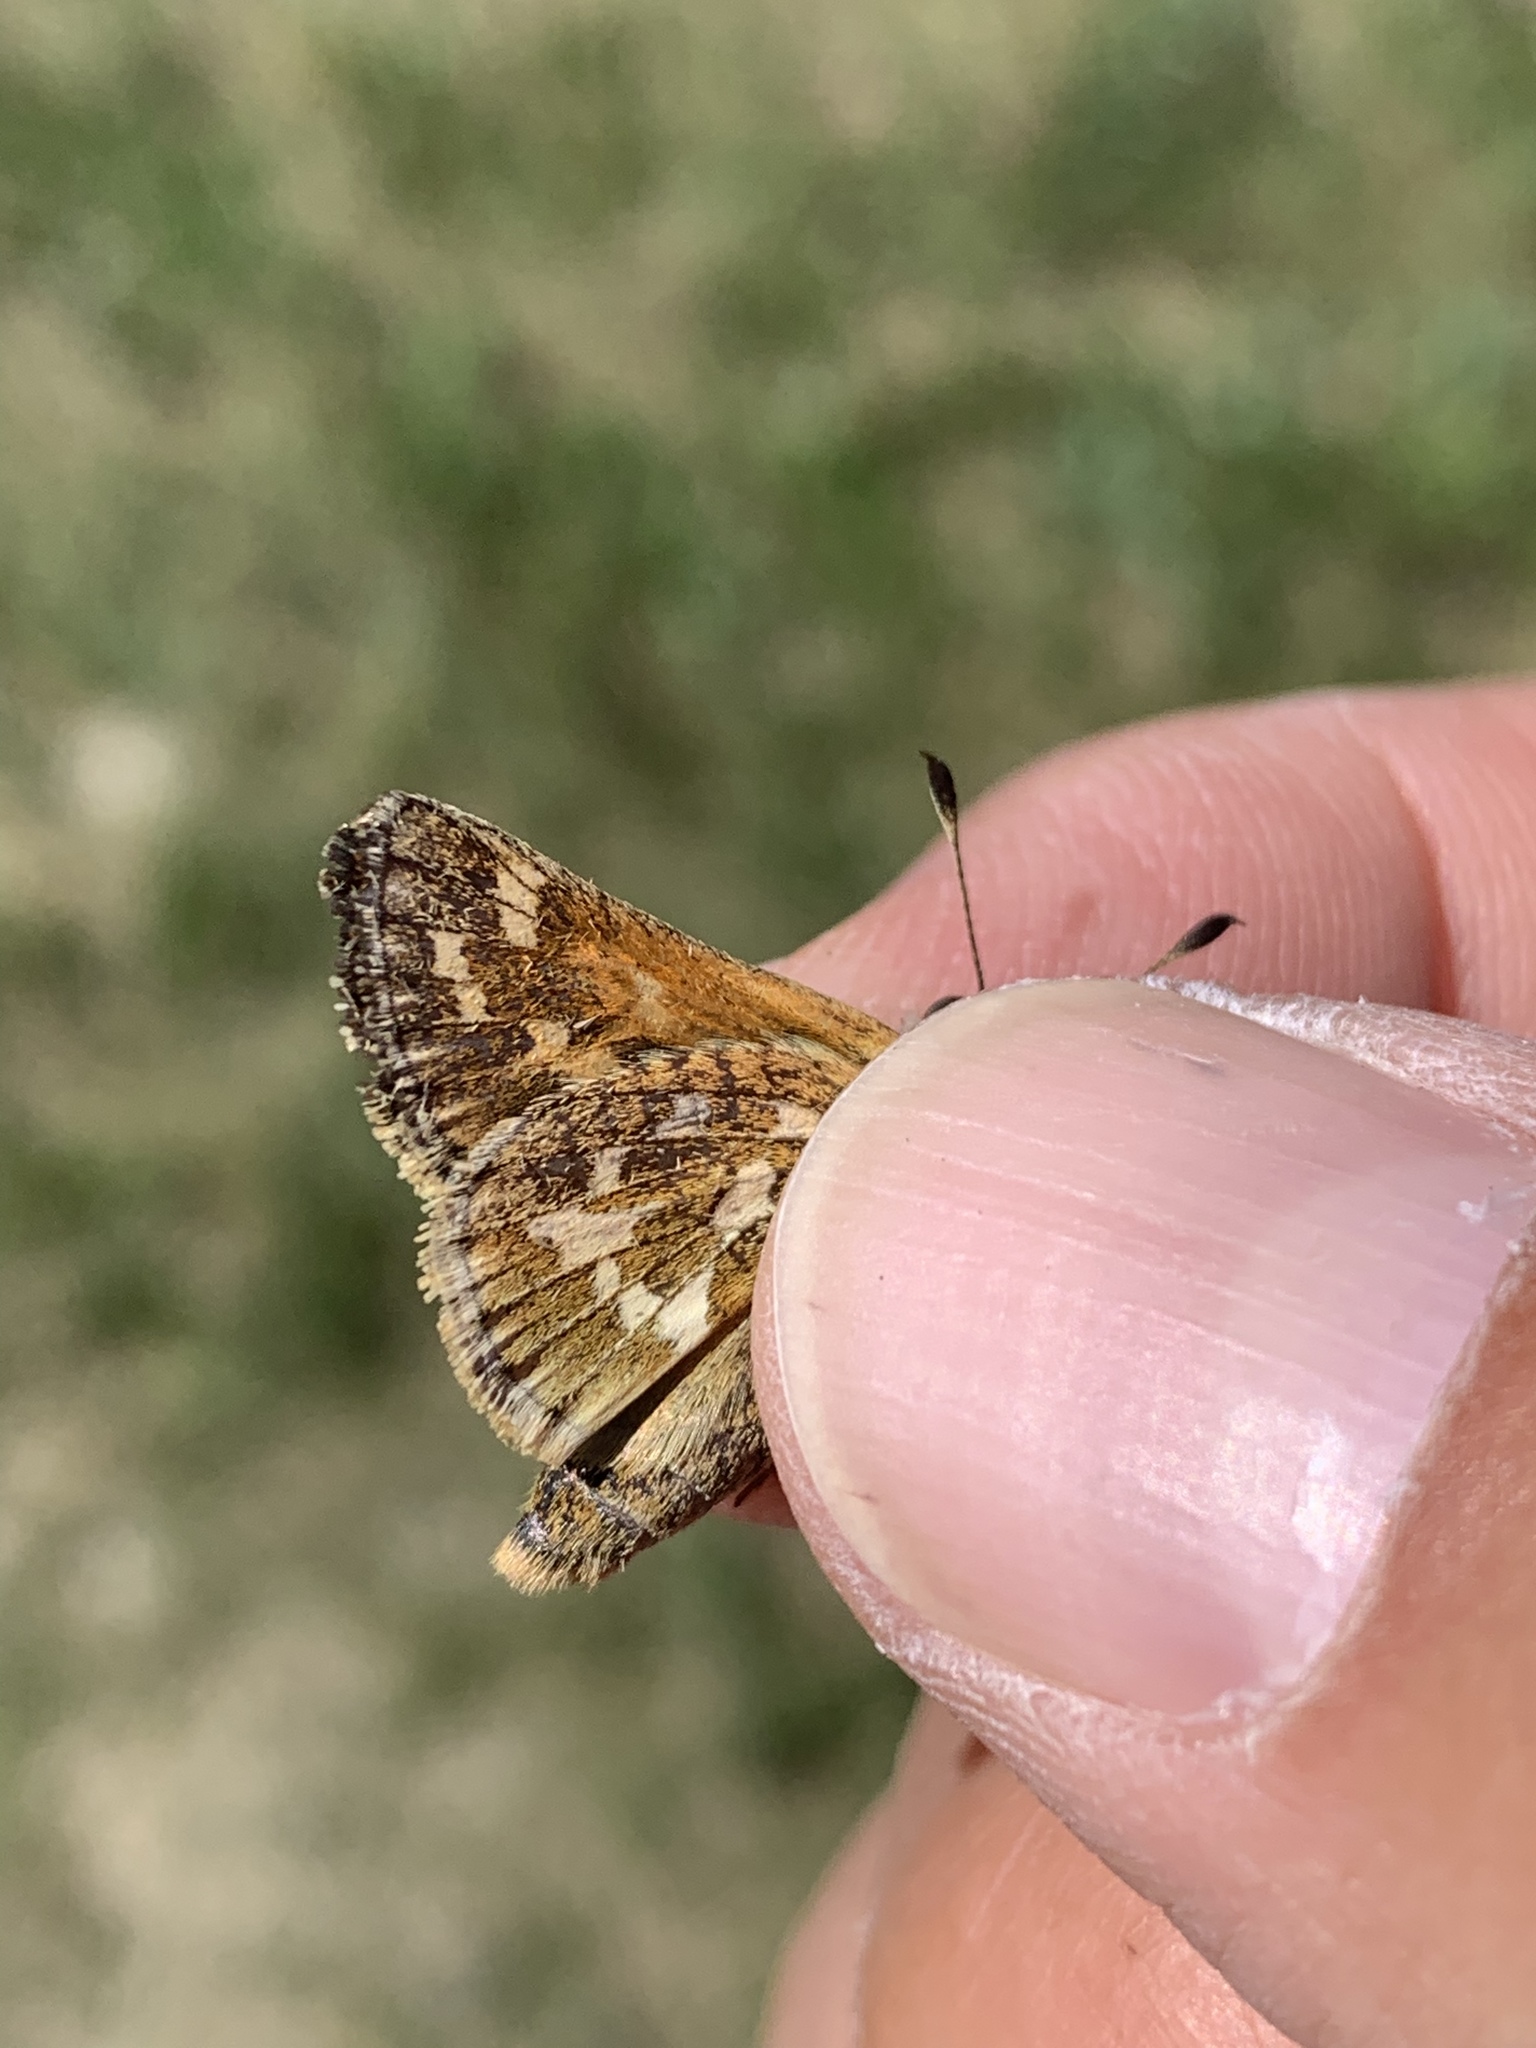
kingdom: Animalia
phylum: Arthropoda
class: Insecta
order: Lepidoptera
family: Hesperiidae
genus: Polites
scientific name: Polites sabuleti
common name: Sandhill skipper
